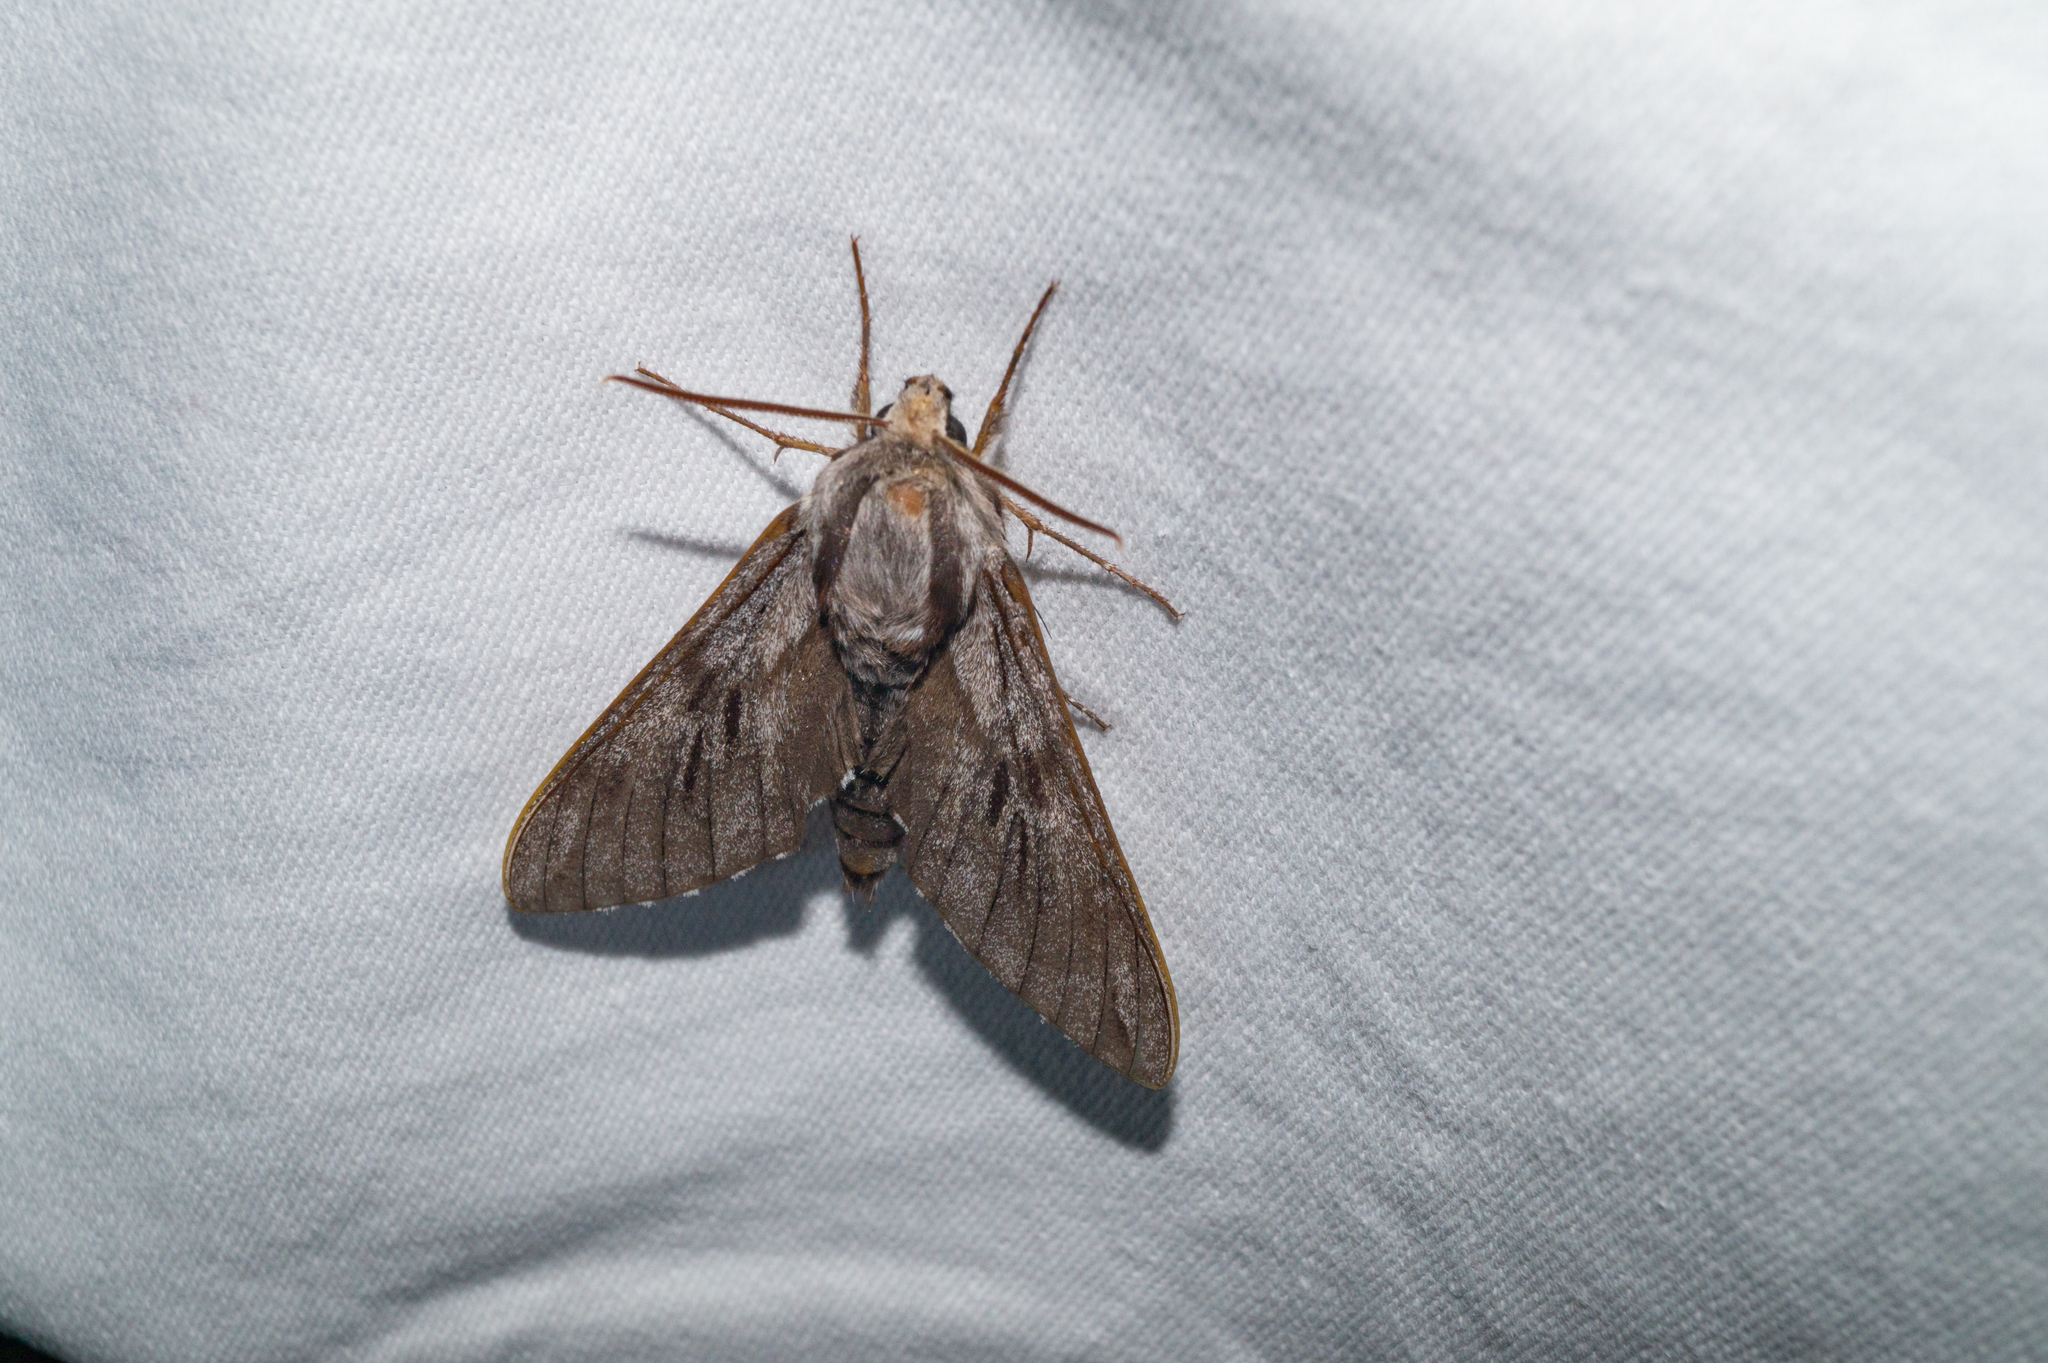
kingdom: Animalia
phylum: Arthropoda
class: Insecta
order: Lepidoptera
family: Sphingidae
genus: Sphinx
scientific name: Sphinx pinastri
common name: Pine hawk-moth
